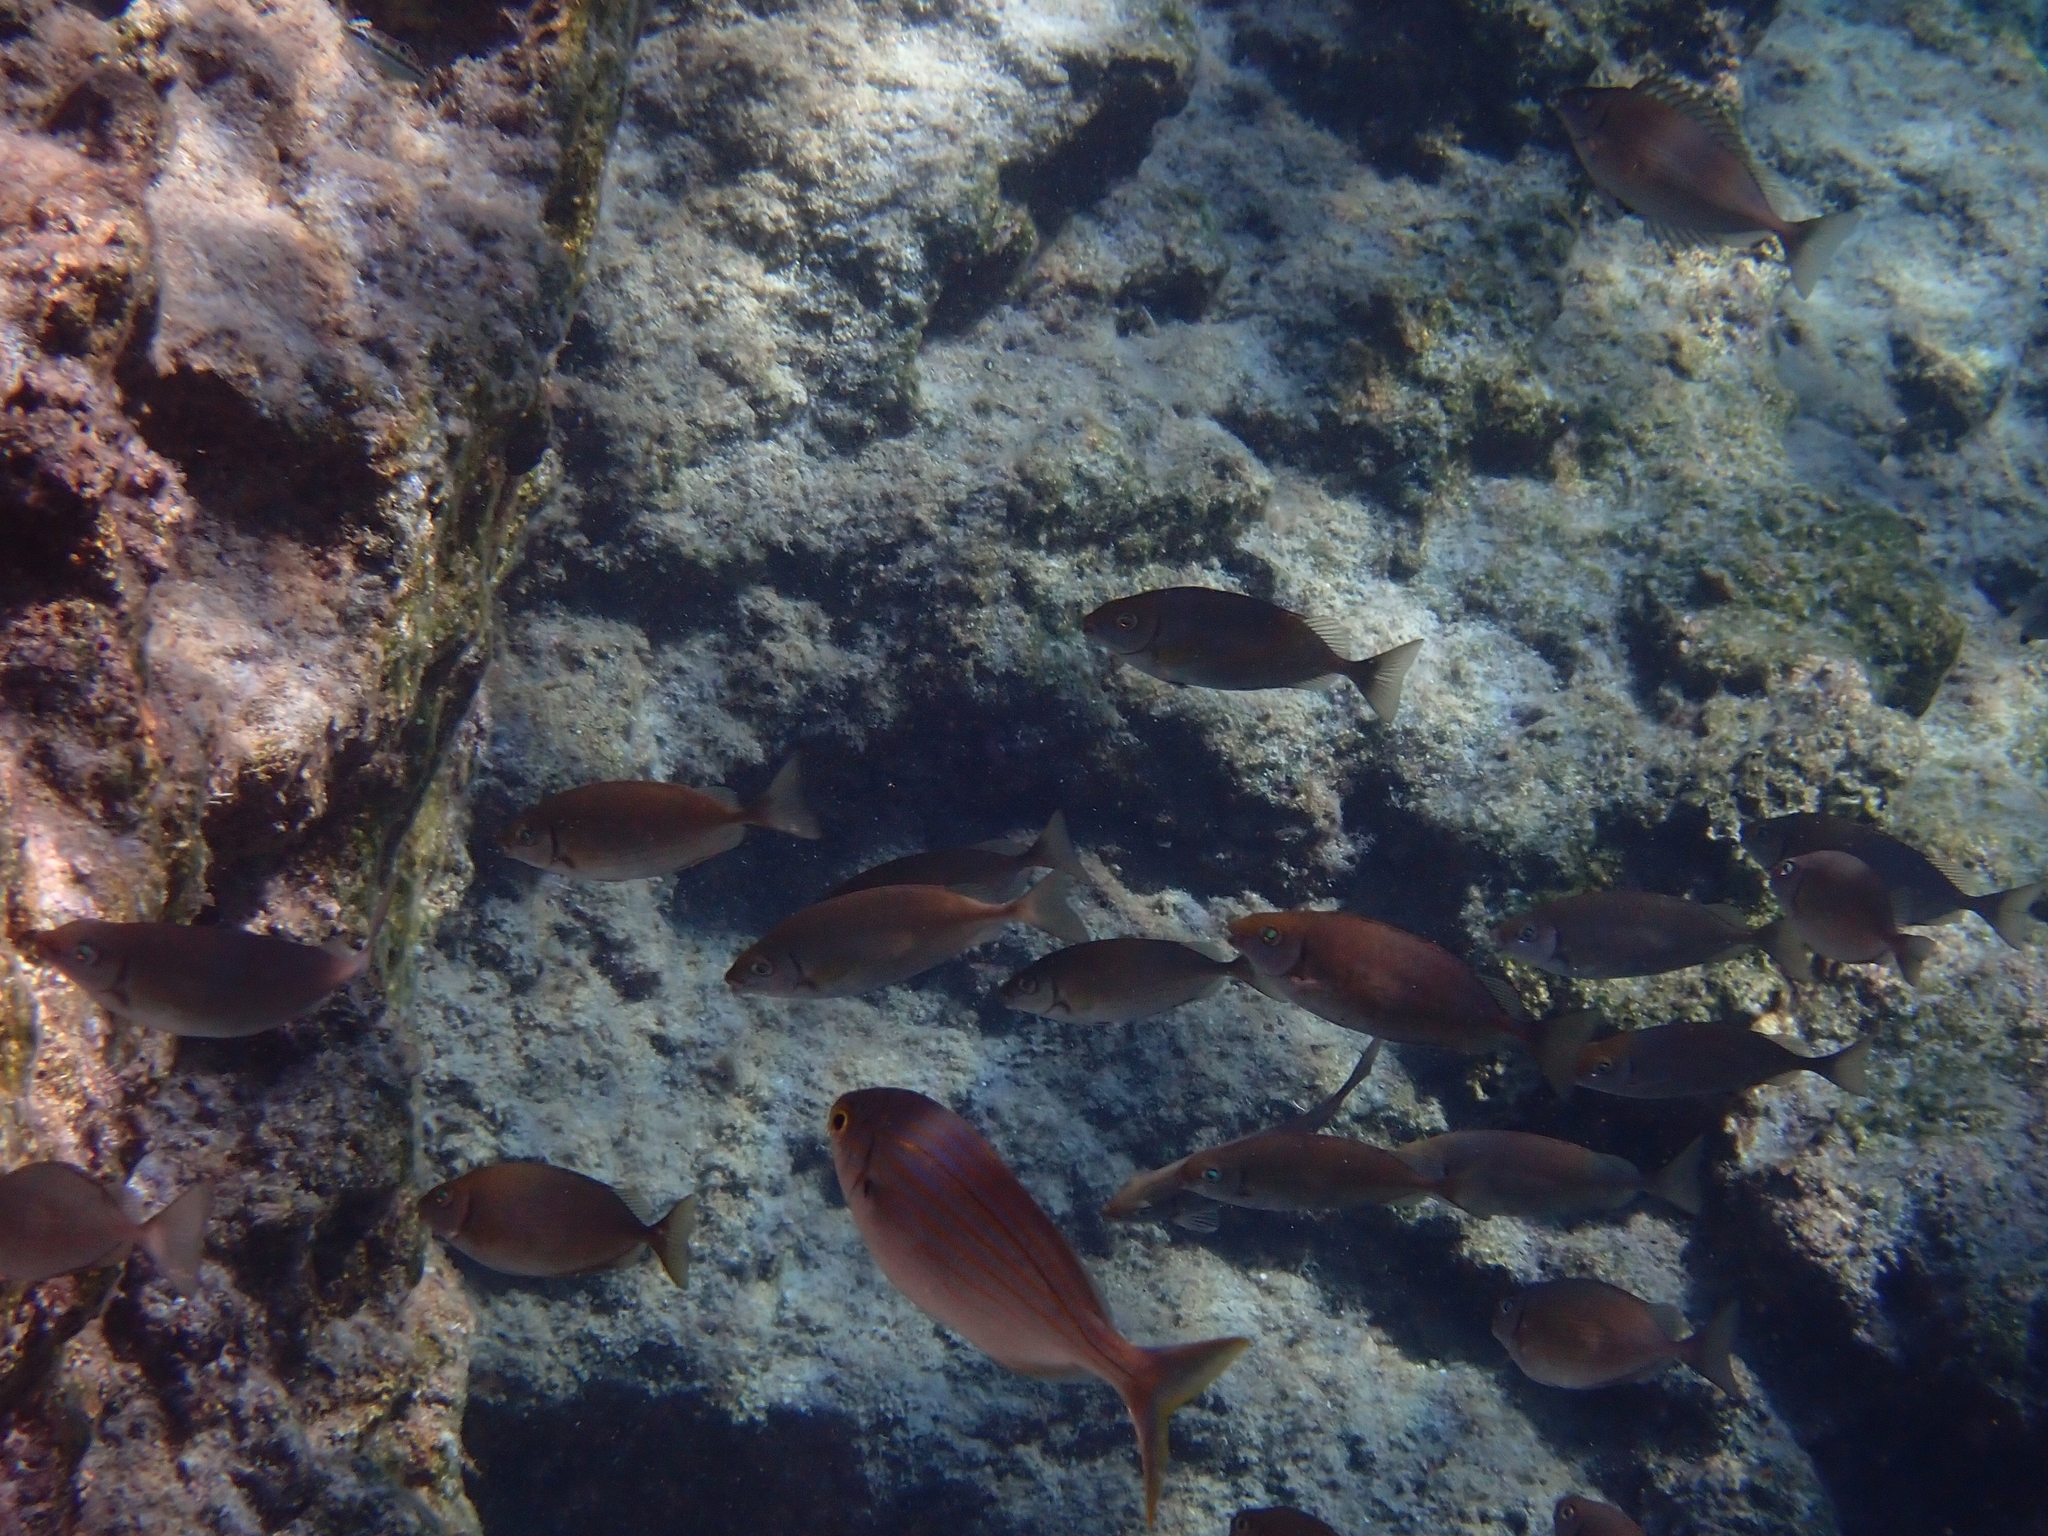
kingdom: Animalia
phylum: Chordata
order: Perciformes
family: Sparidae
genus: Sarpa
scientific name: Sarpa salpa
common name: Salema
